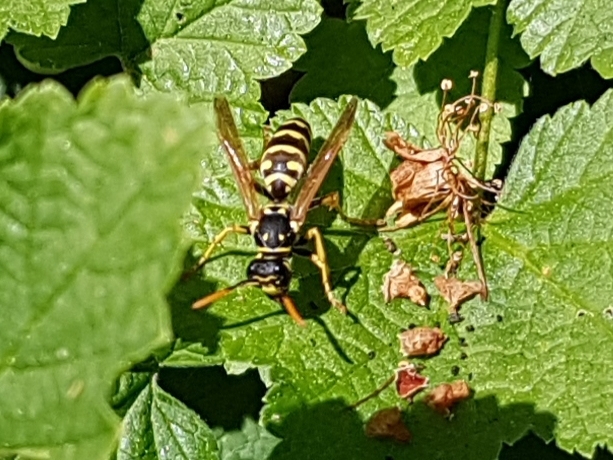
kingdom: Animalia
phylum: Arthropoda
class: Insecta
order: Hymenoptera
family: Eumenidae
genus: Polistes
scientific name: Polistes dominula
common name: Paper wasp
